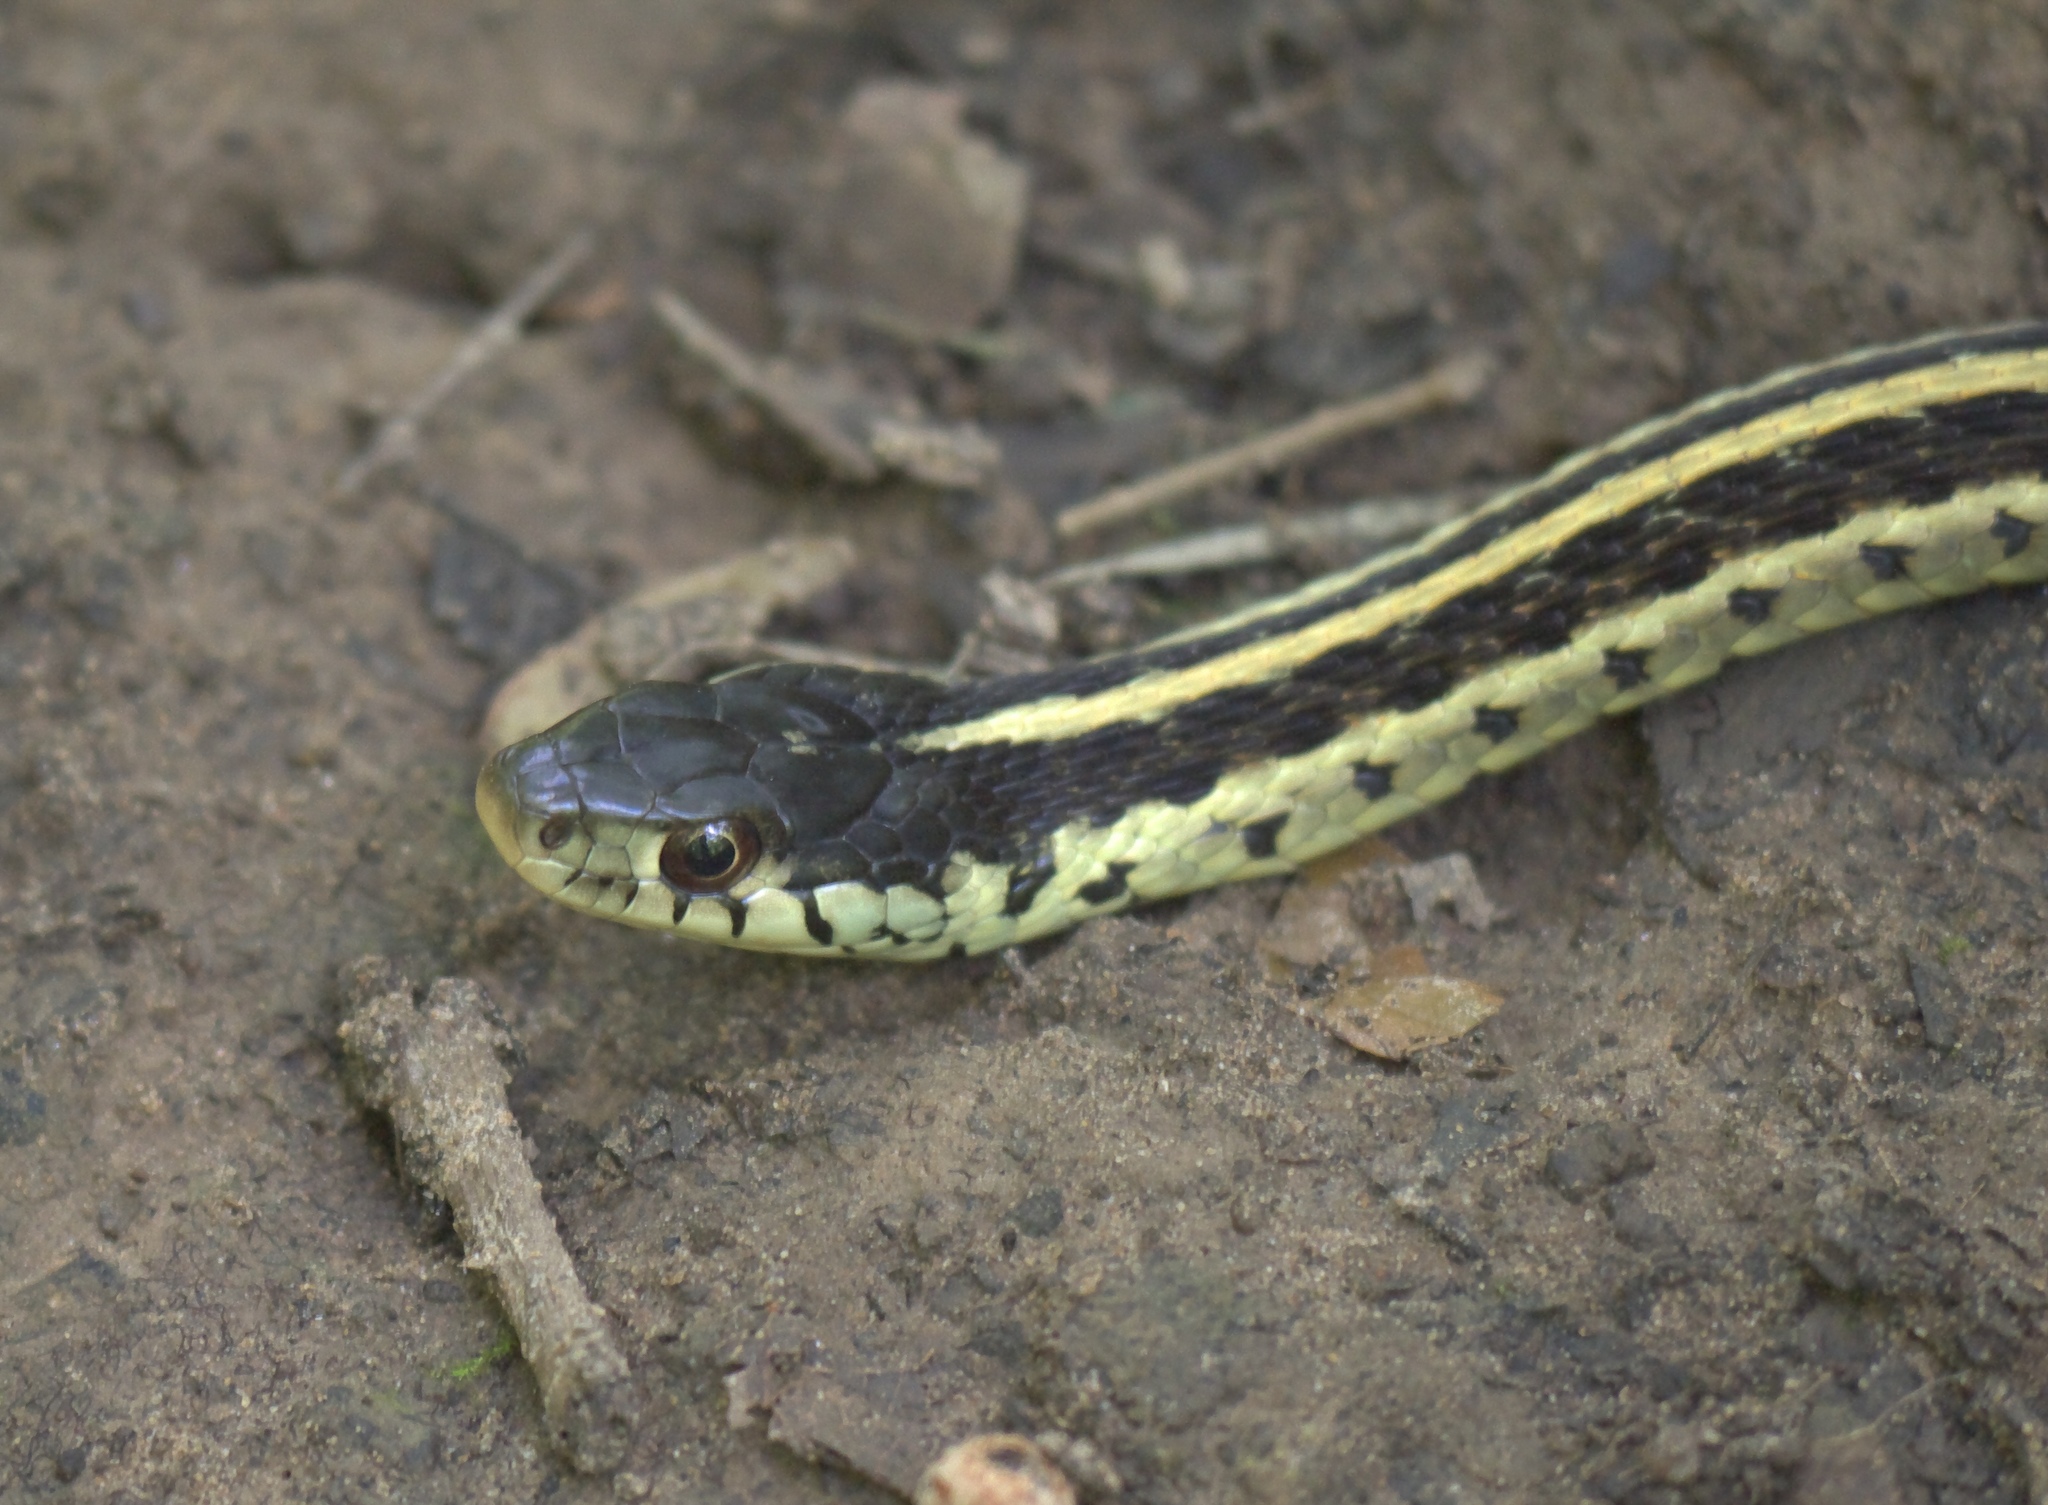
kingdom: Animalia
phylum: Chordata
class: Squamata
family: Colubridae
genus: Thamnophis
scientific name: Thamnophis sirtalis
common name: Common garter snake
